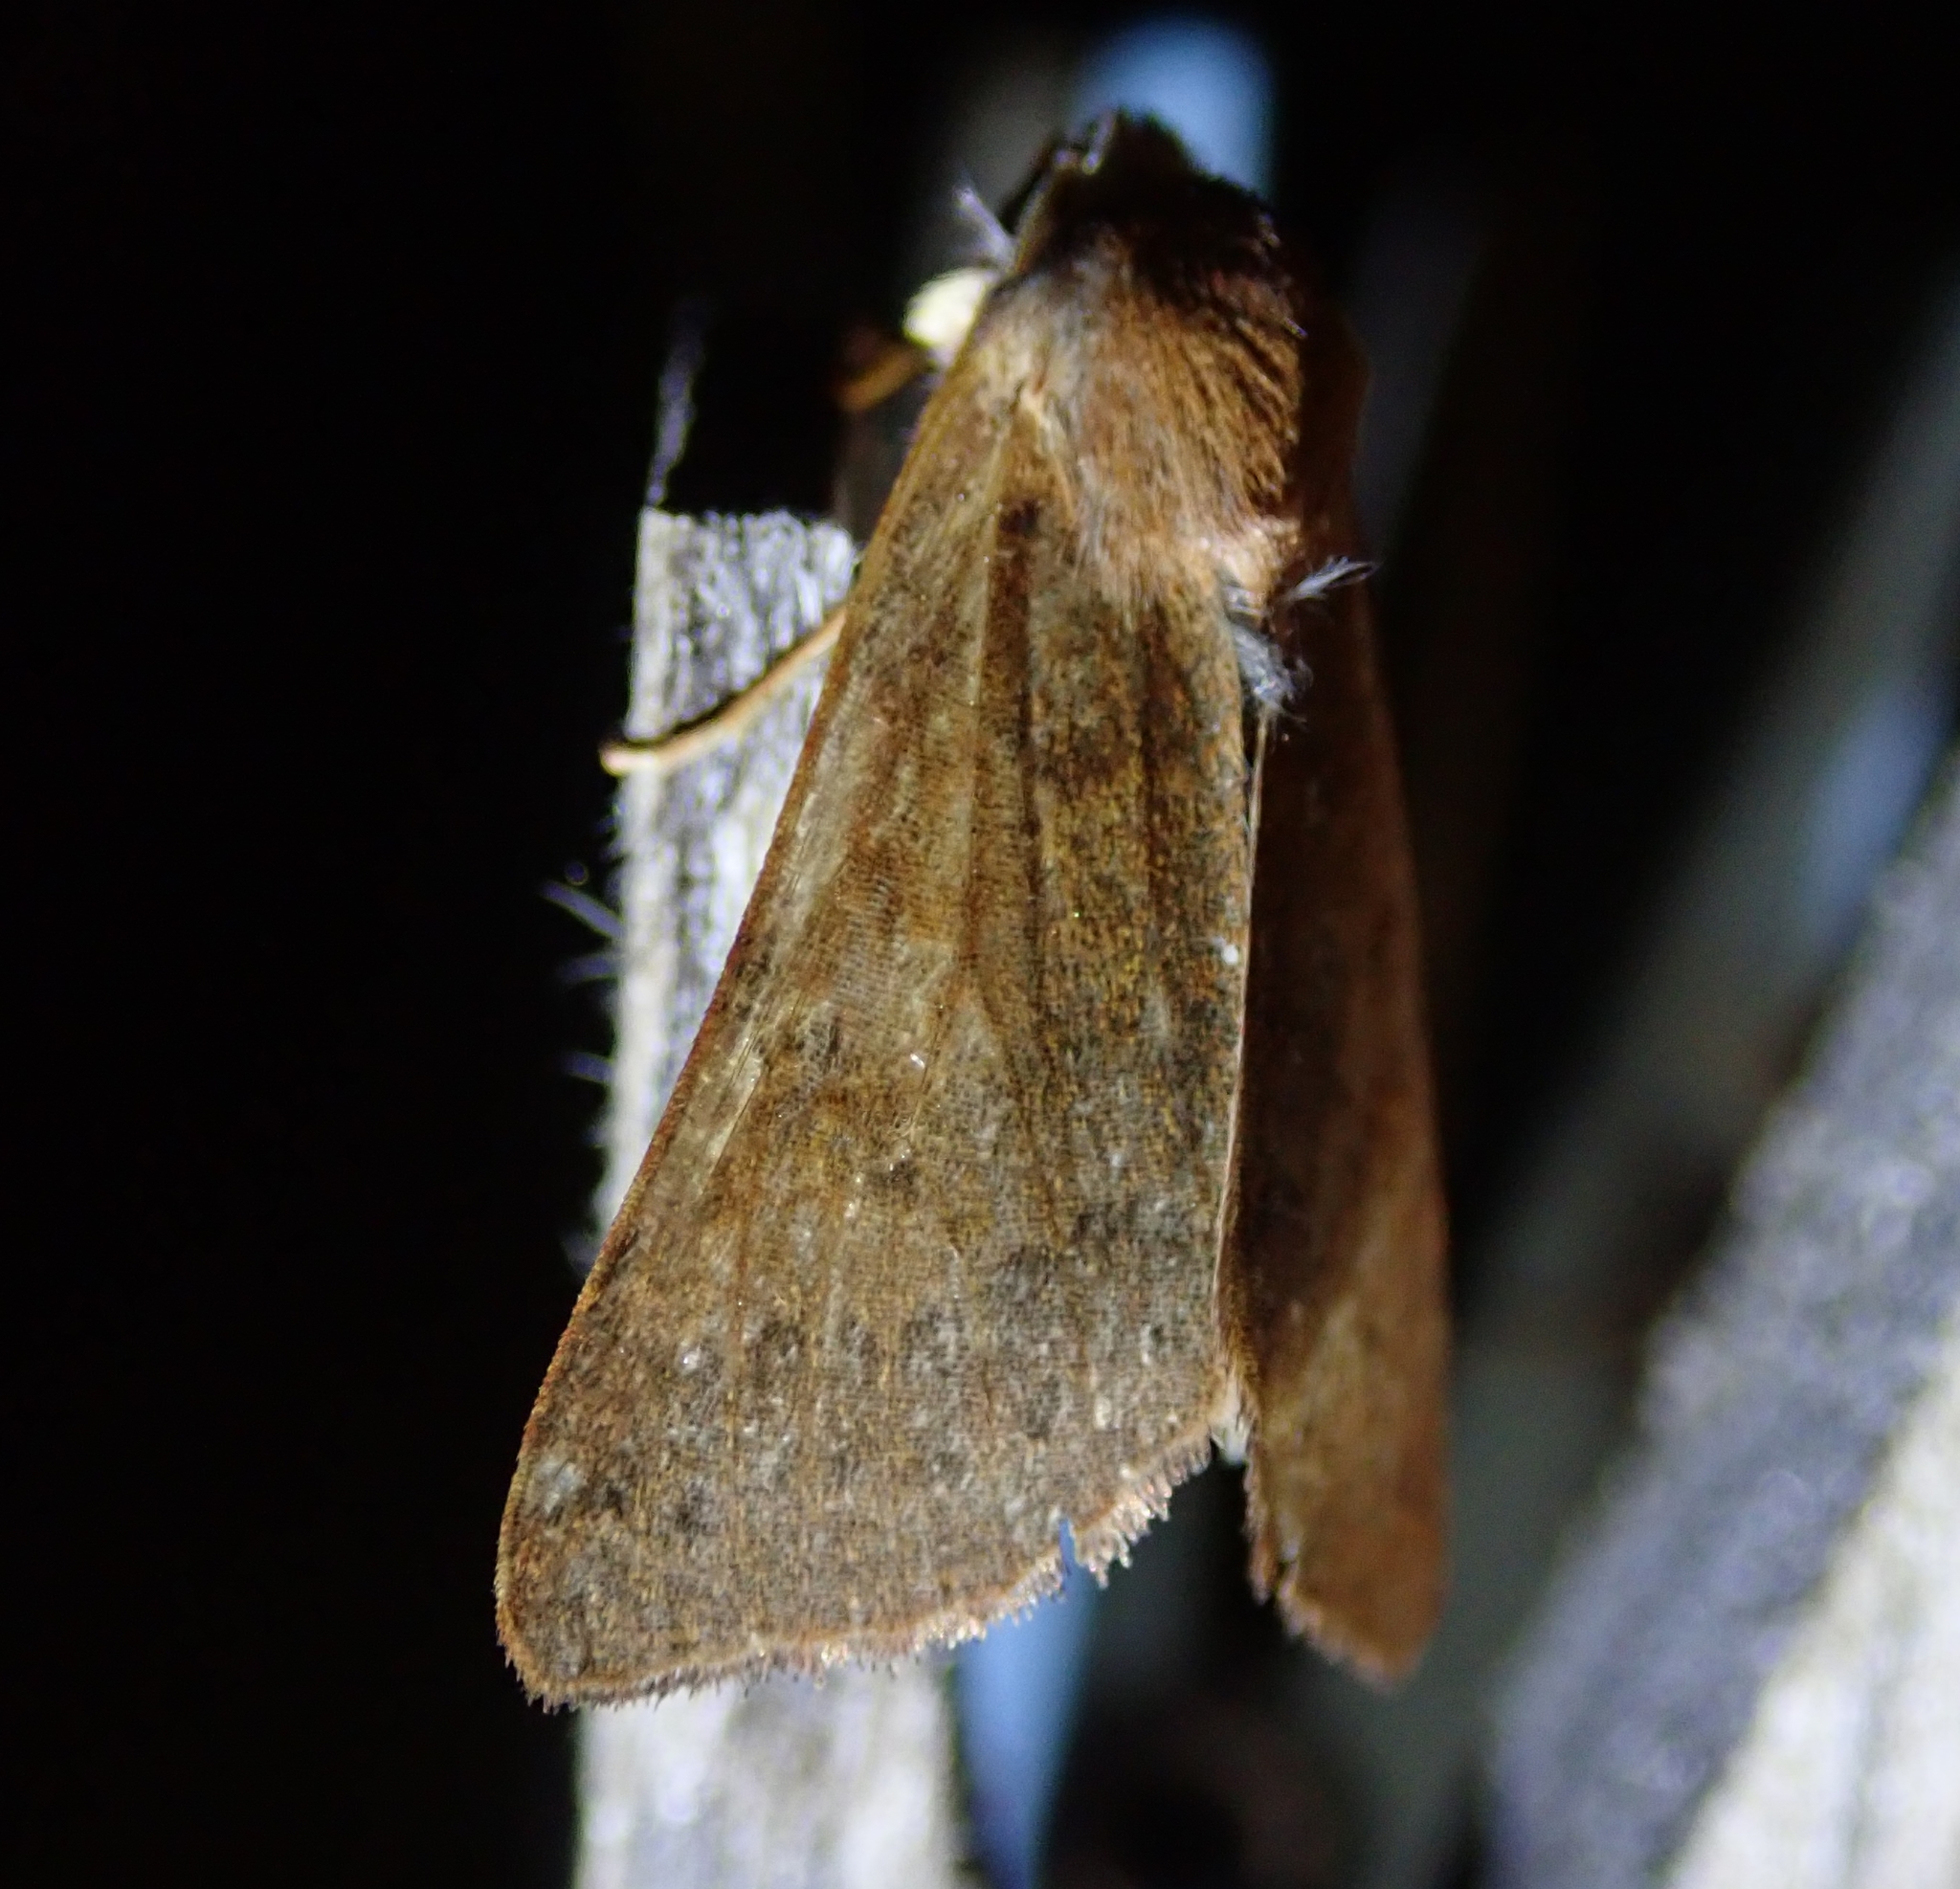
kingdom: Animalia
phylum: Arthropoda
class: Insecta
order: Lepidoptera
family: Noctuidae
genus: Agrochola
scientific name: Agrochola helvola
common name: Flounced chestnut
